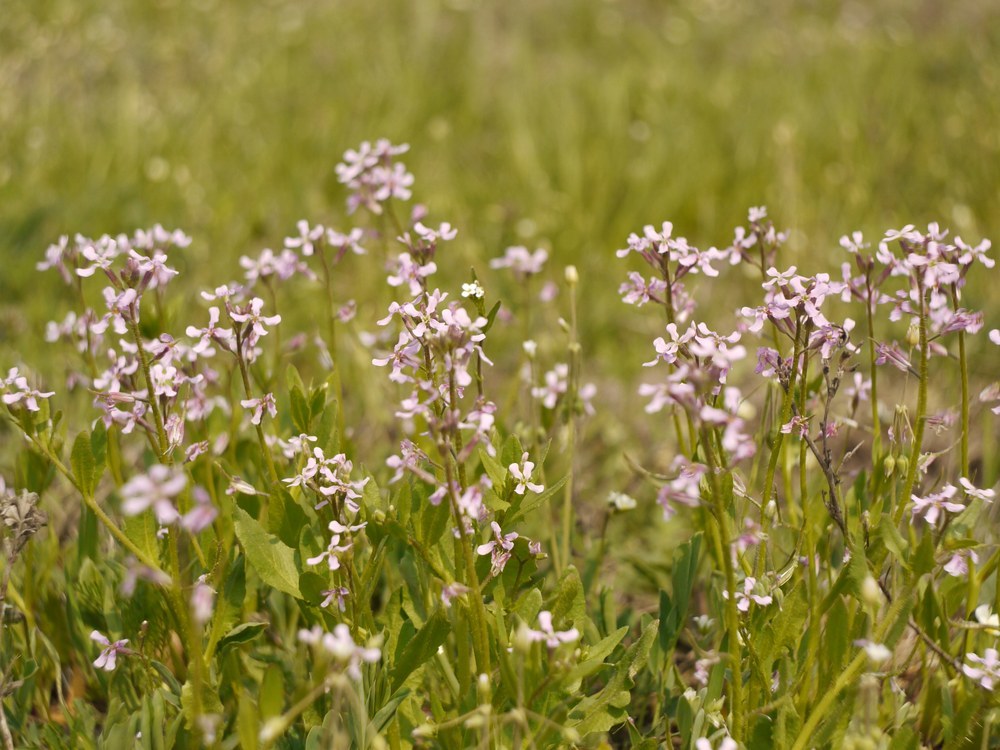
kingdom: Plantae
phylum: Tracheophyta
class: Magnoliopsida
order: Brassicales
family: Brassicaceae
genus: Chorispora
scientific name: Chorispora tenella
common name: Crossflower
